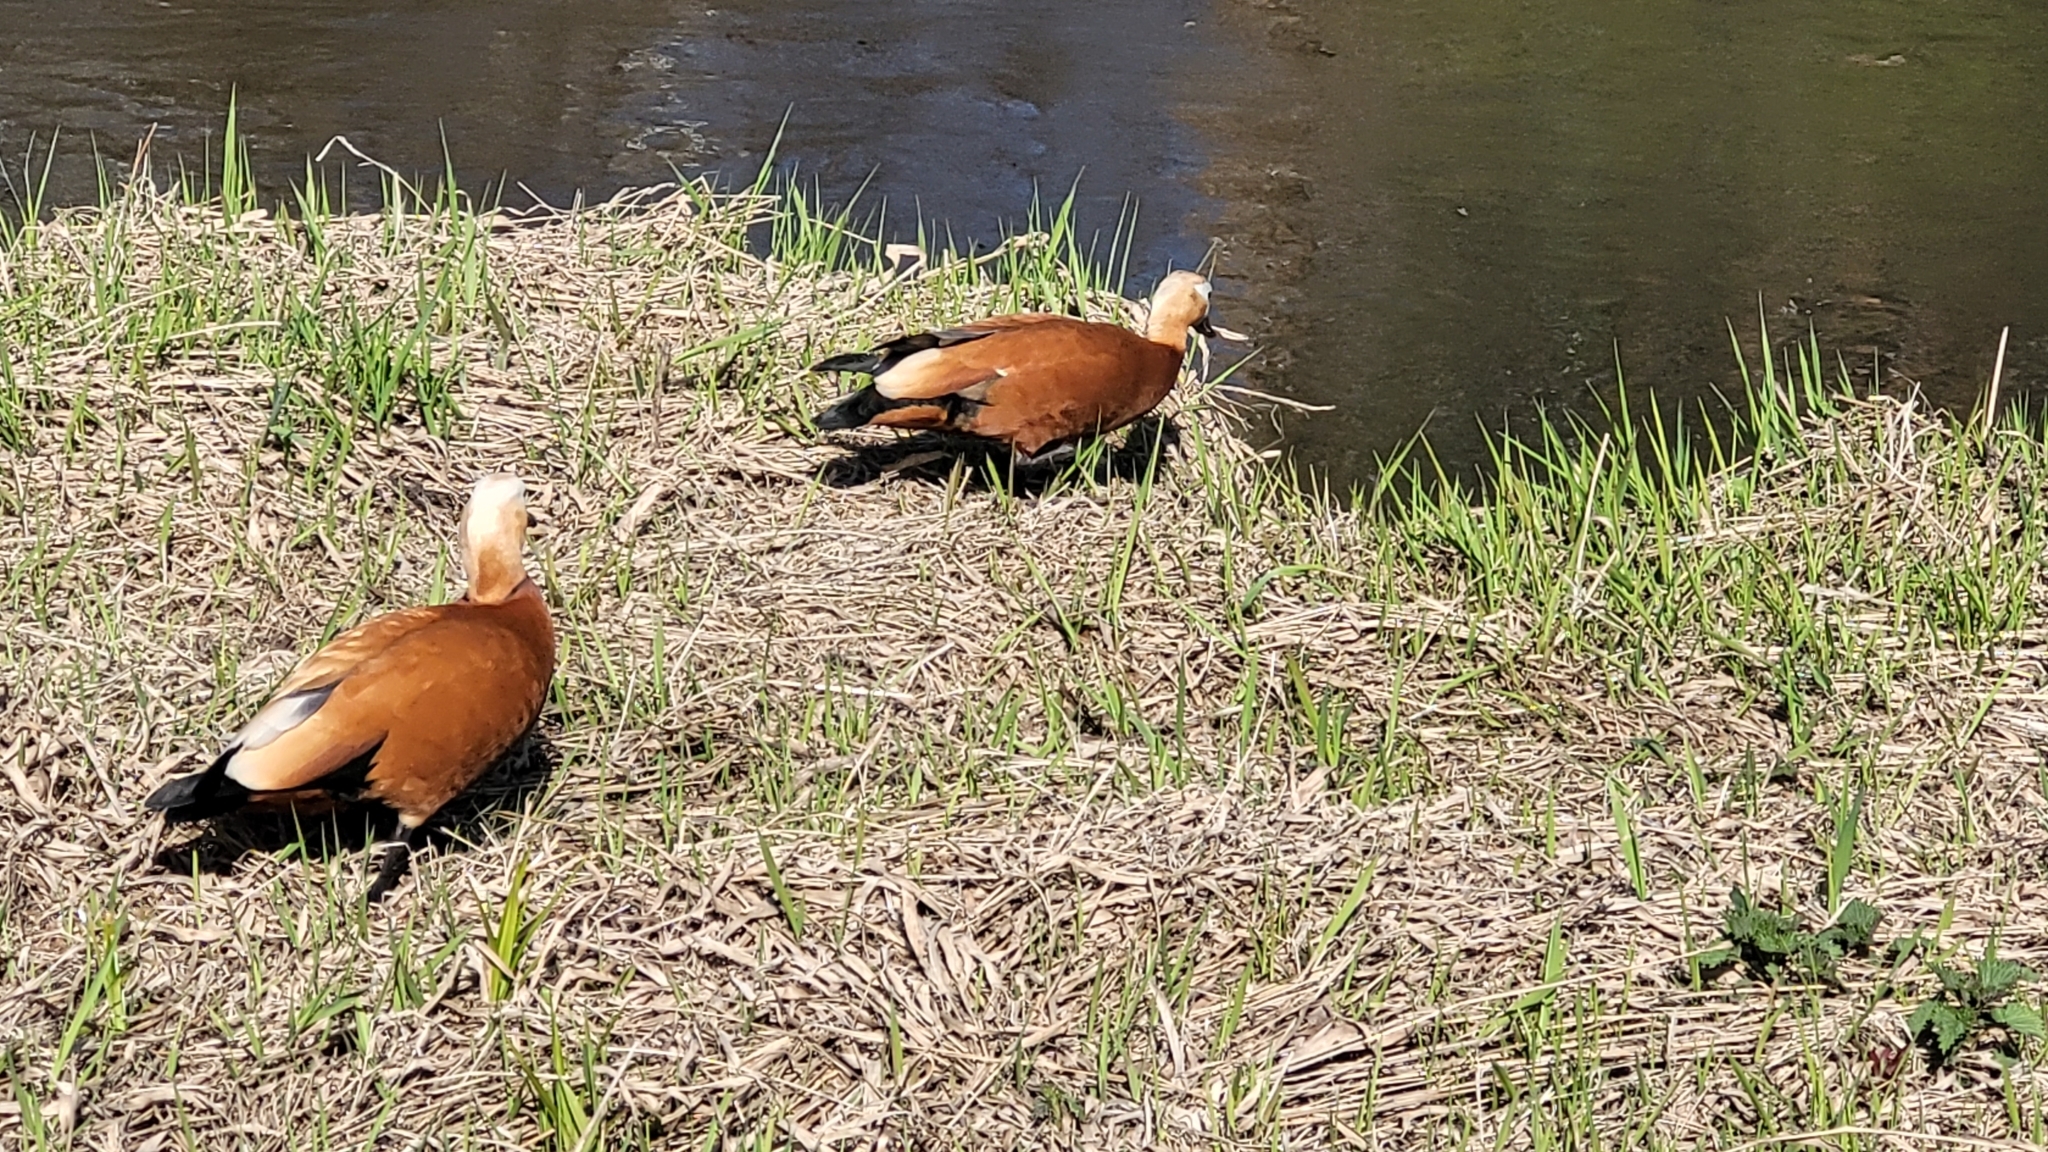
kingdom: Animalia
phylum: Chordata
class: Aves
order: Anseriformes
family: Anatidae
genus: Tadorna
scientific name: Tadorna ferruginea
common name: Ruddy shelduck
